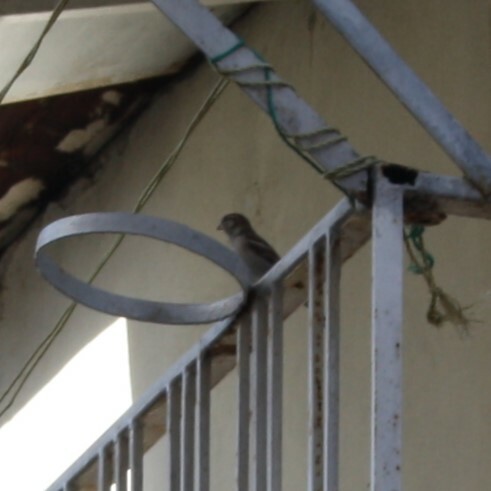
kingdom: Animalia
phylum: Chordata
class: Aves
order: Passeriformes
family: Passeridae
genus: Passer
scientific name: Passer domesticus
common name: House sparrow
